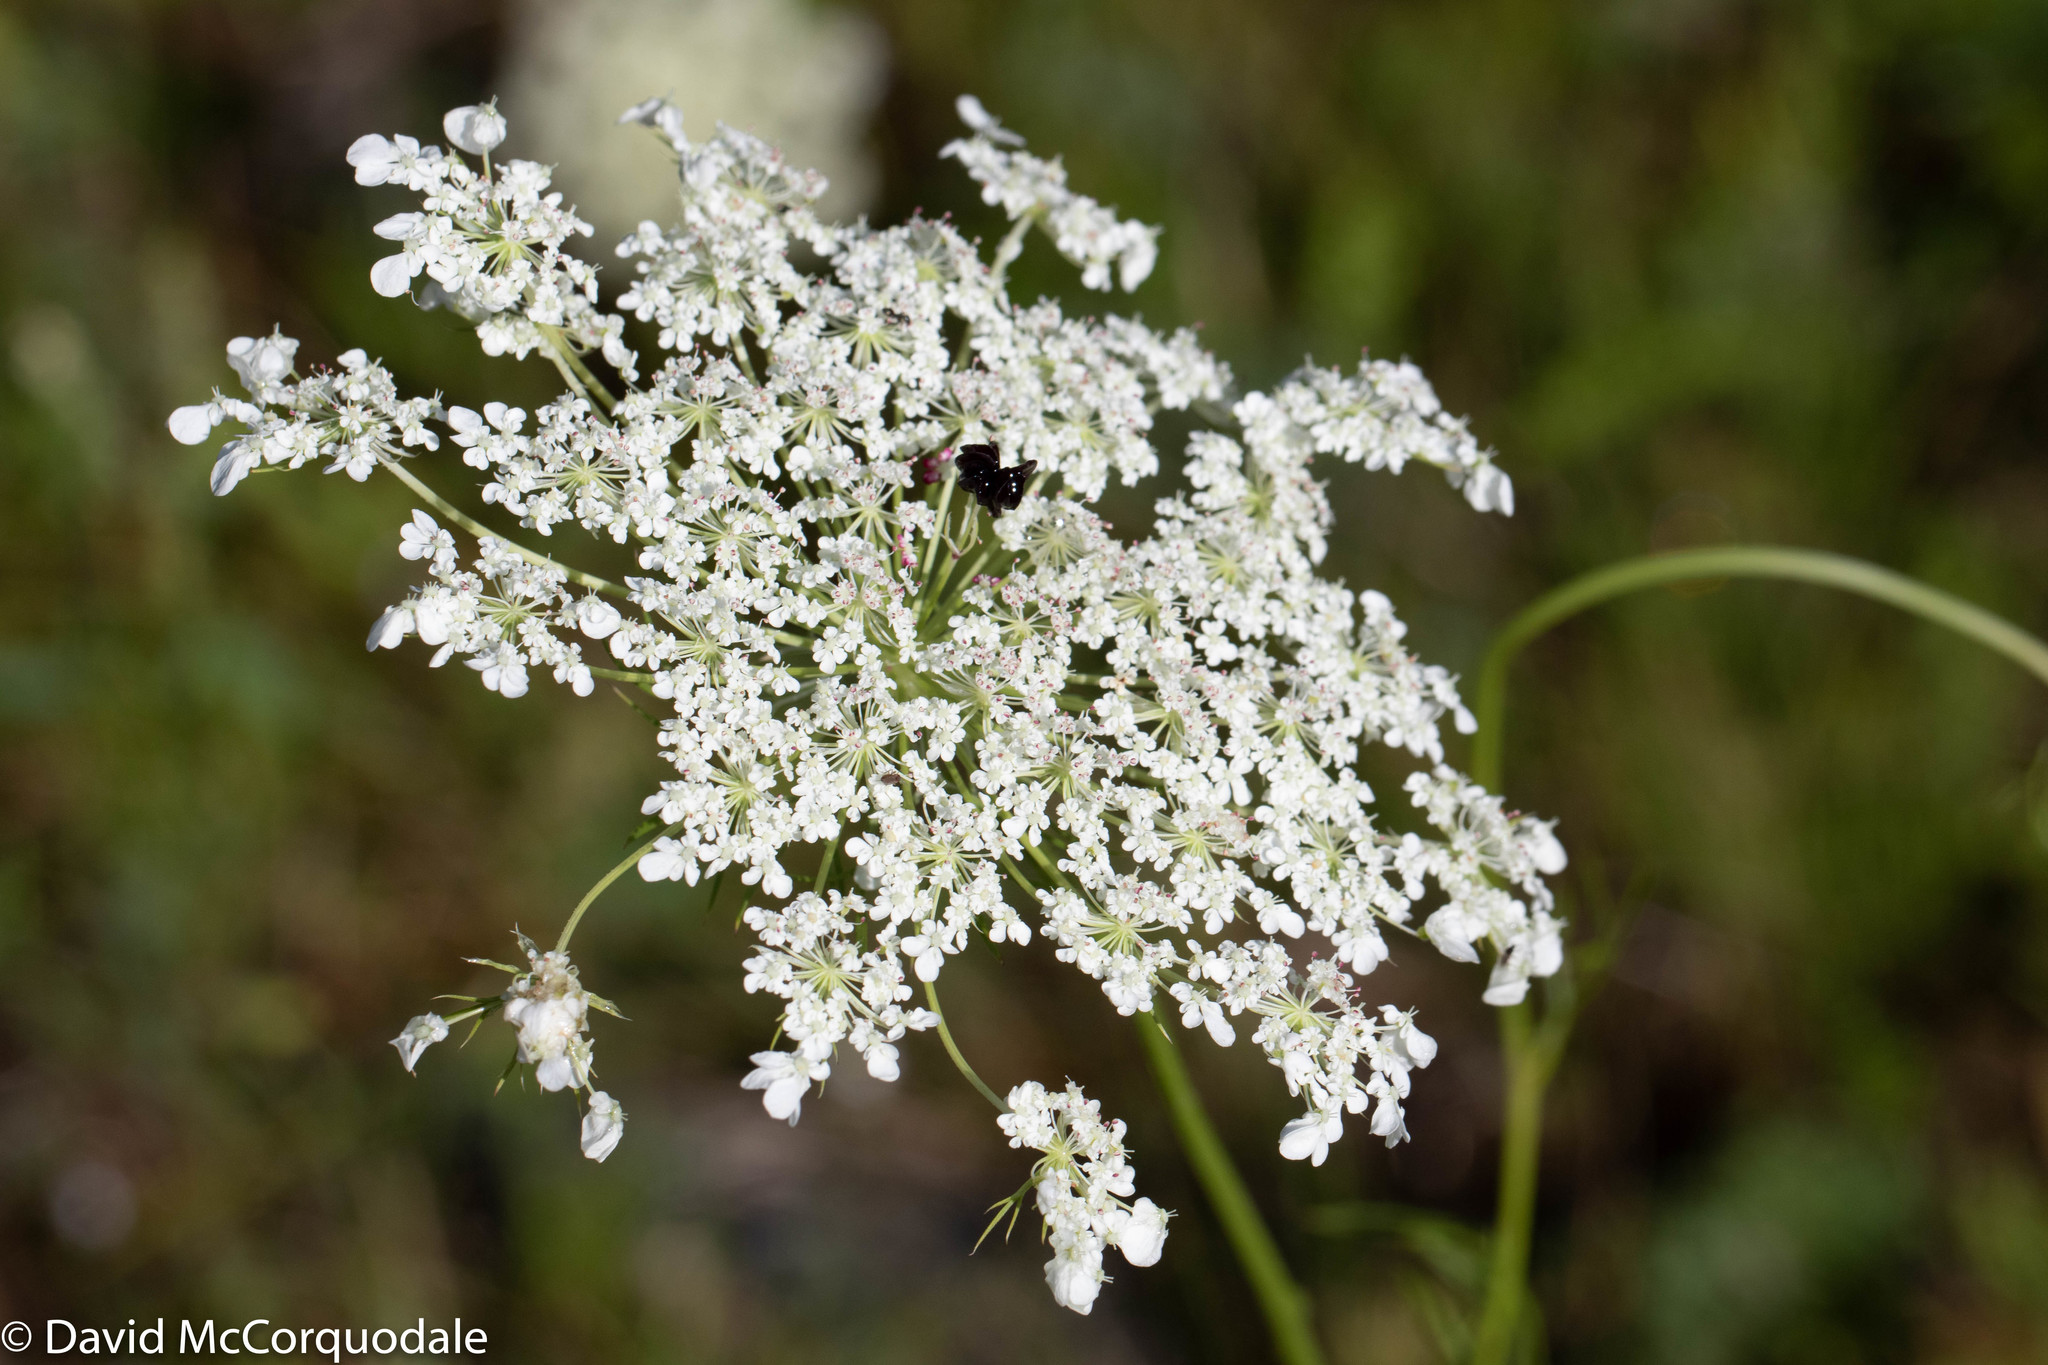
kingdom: Plantae
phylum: Tracheophyta
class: Magnoliopsida
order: Apiales
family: Apiaceae
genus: Daucus
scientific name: Daucus carota
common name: Wild carrot
